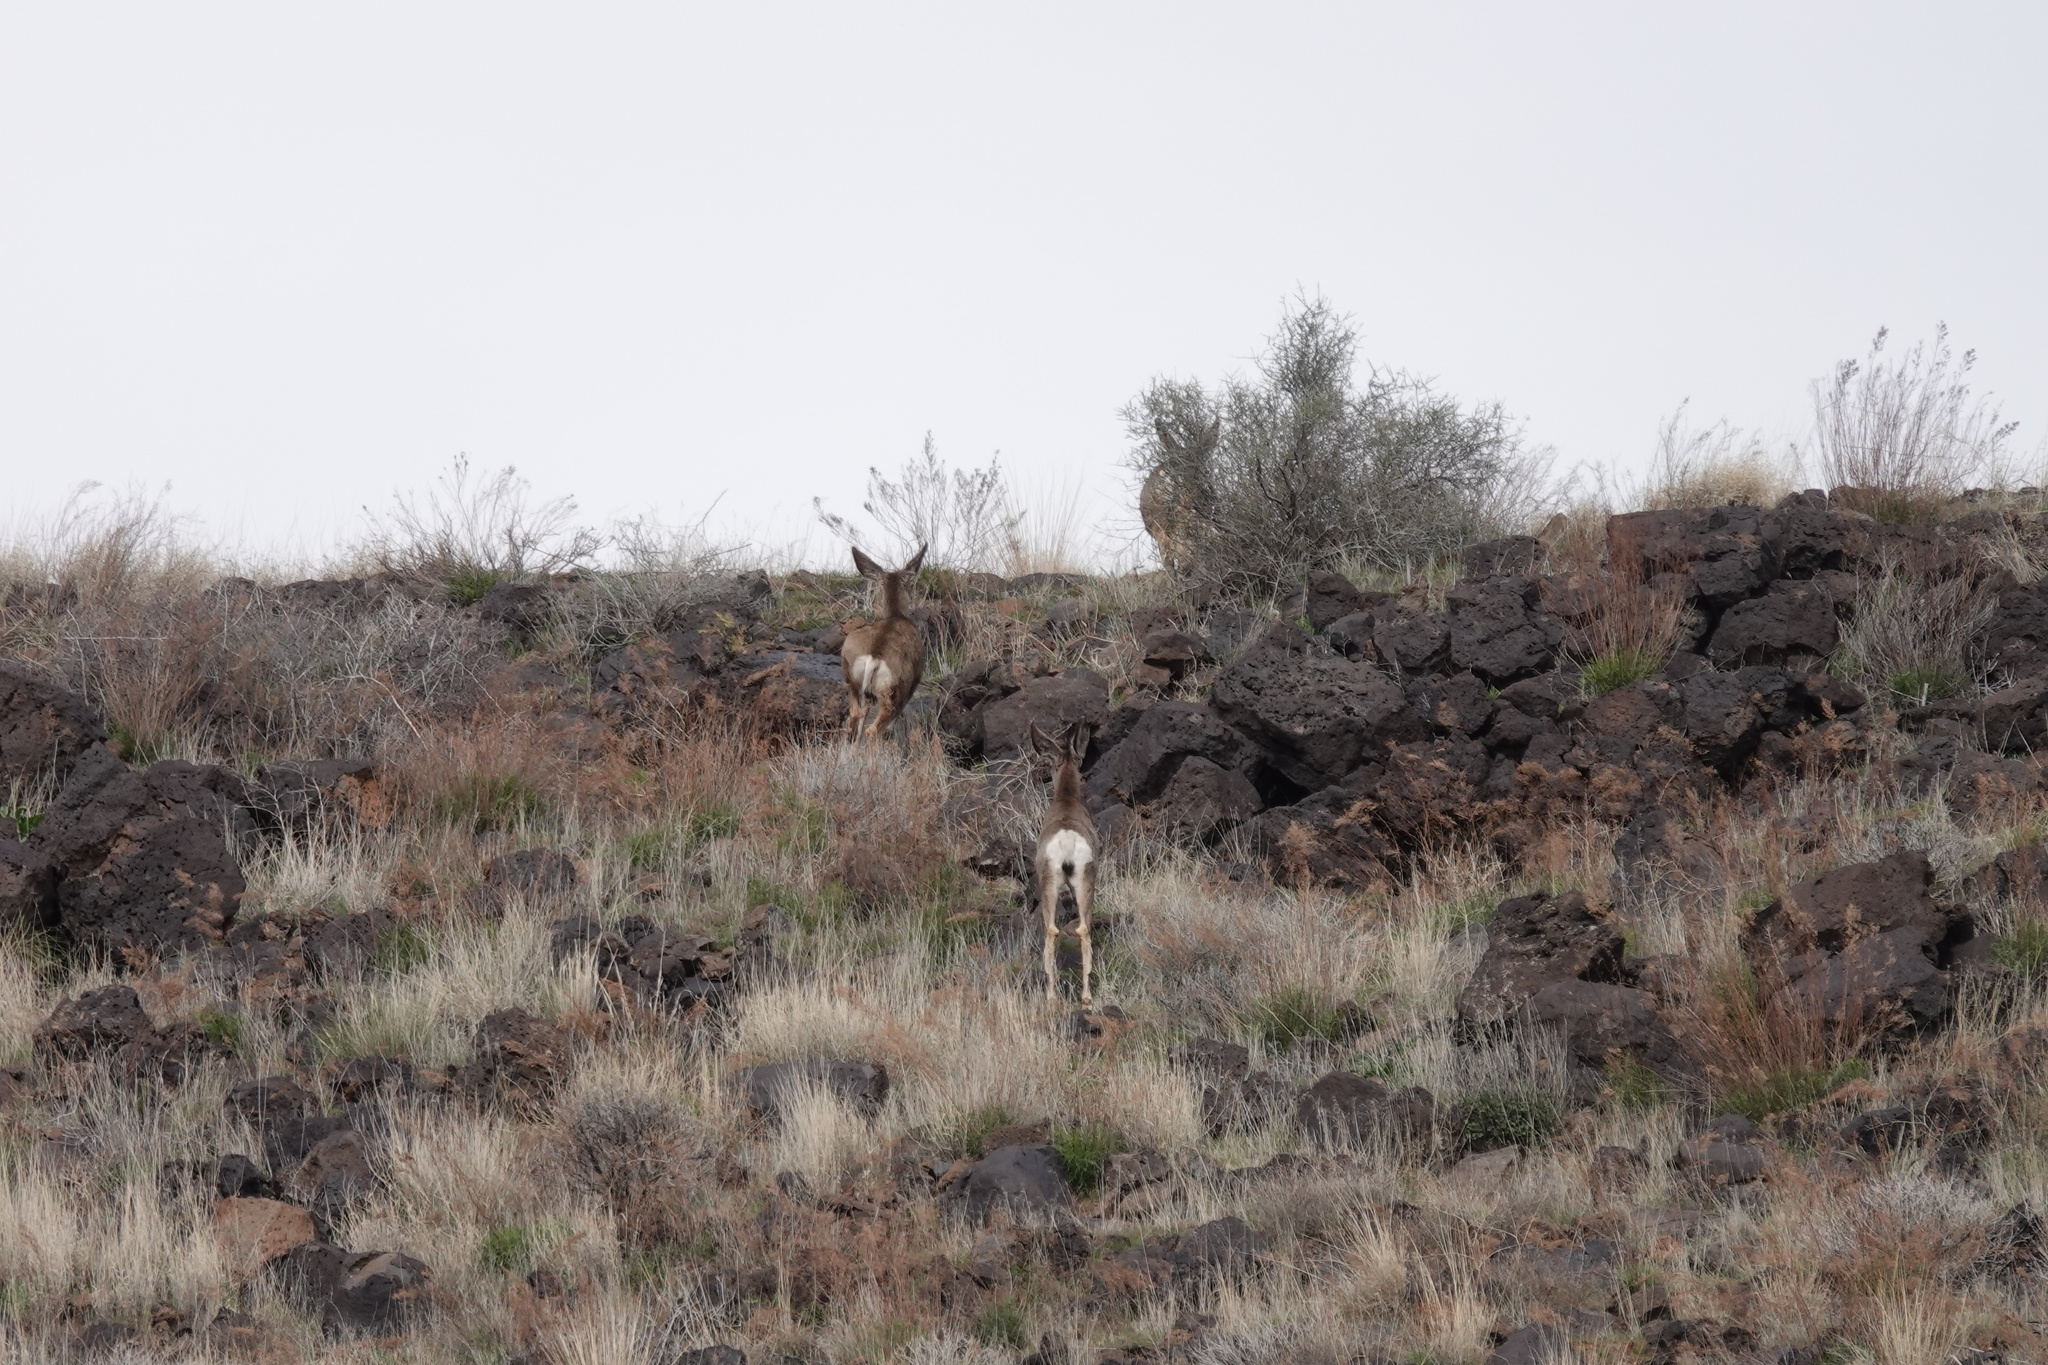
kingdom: Animalia
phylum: Chordata
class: Mammalia
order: Artiodactyla
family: Cervidae
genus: Odocoileus
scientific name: Odocoileus hemionus
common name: Mule deer
